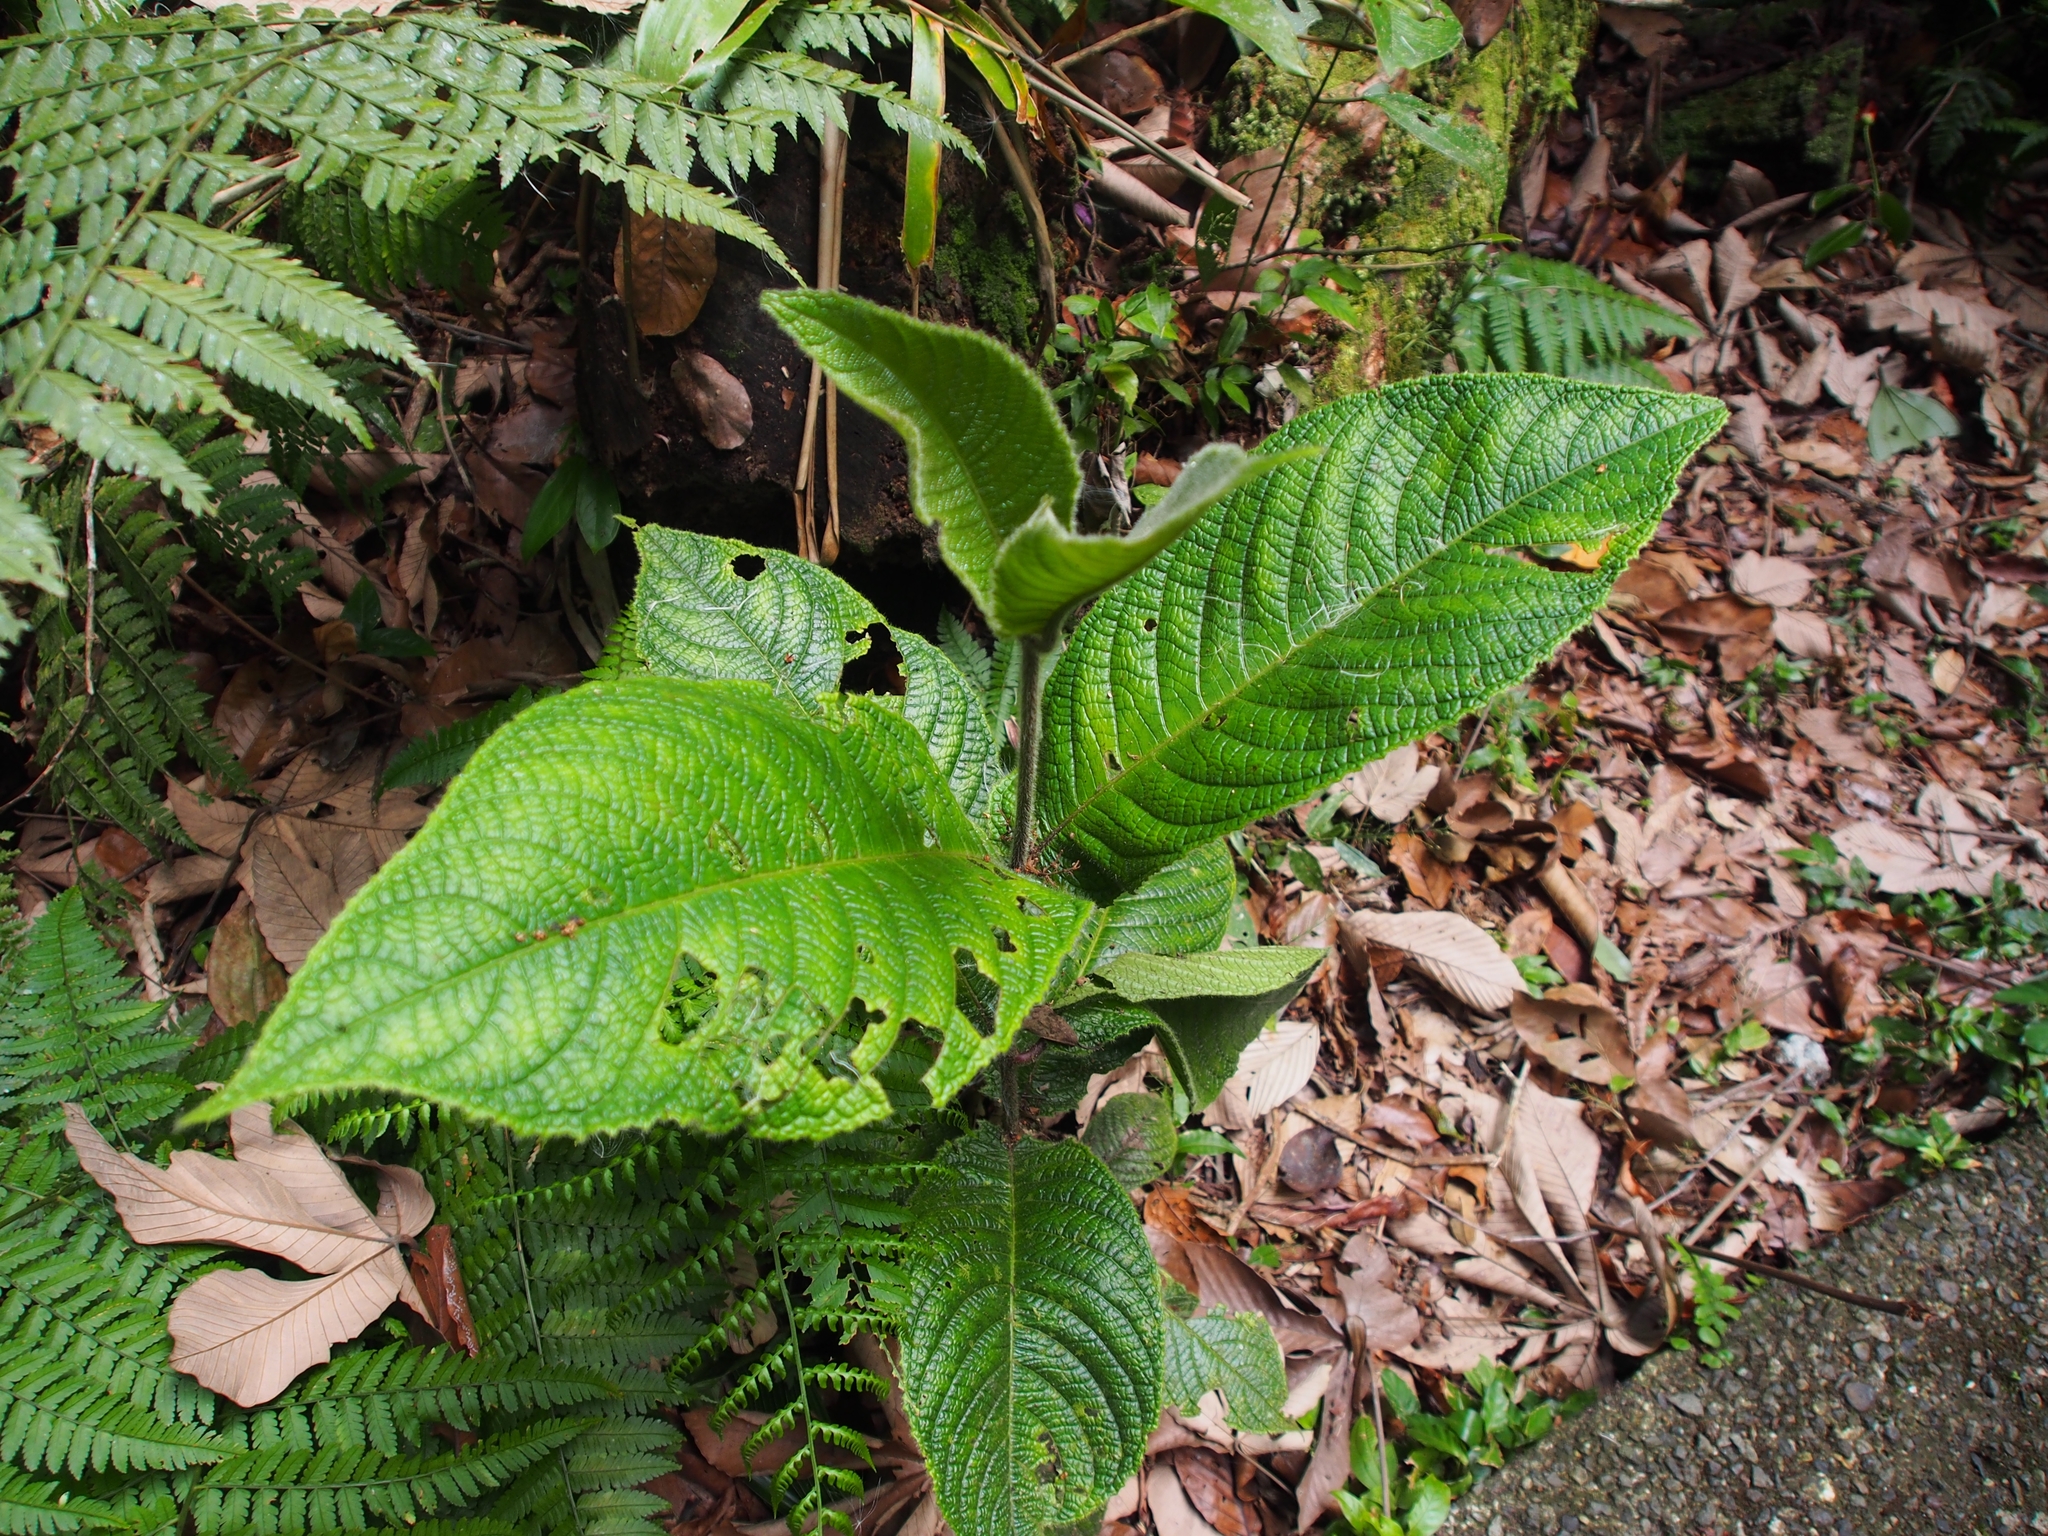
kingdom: Plantae
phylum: Tracheophyta
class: Magnoliopsida
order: Laurales
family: Siparunaceae
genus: Siparuna
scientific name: Siparuna grandiflora
